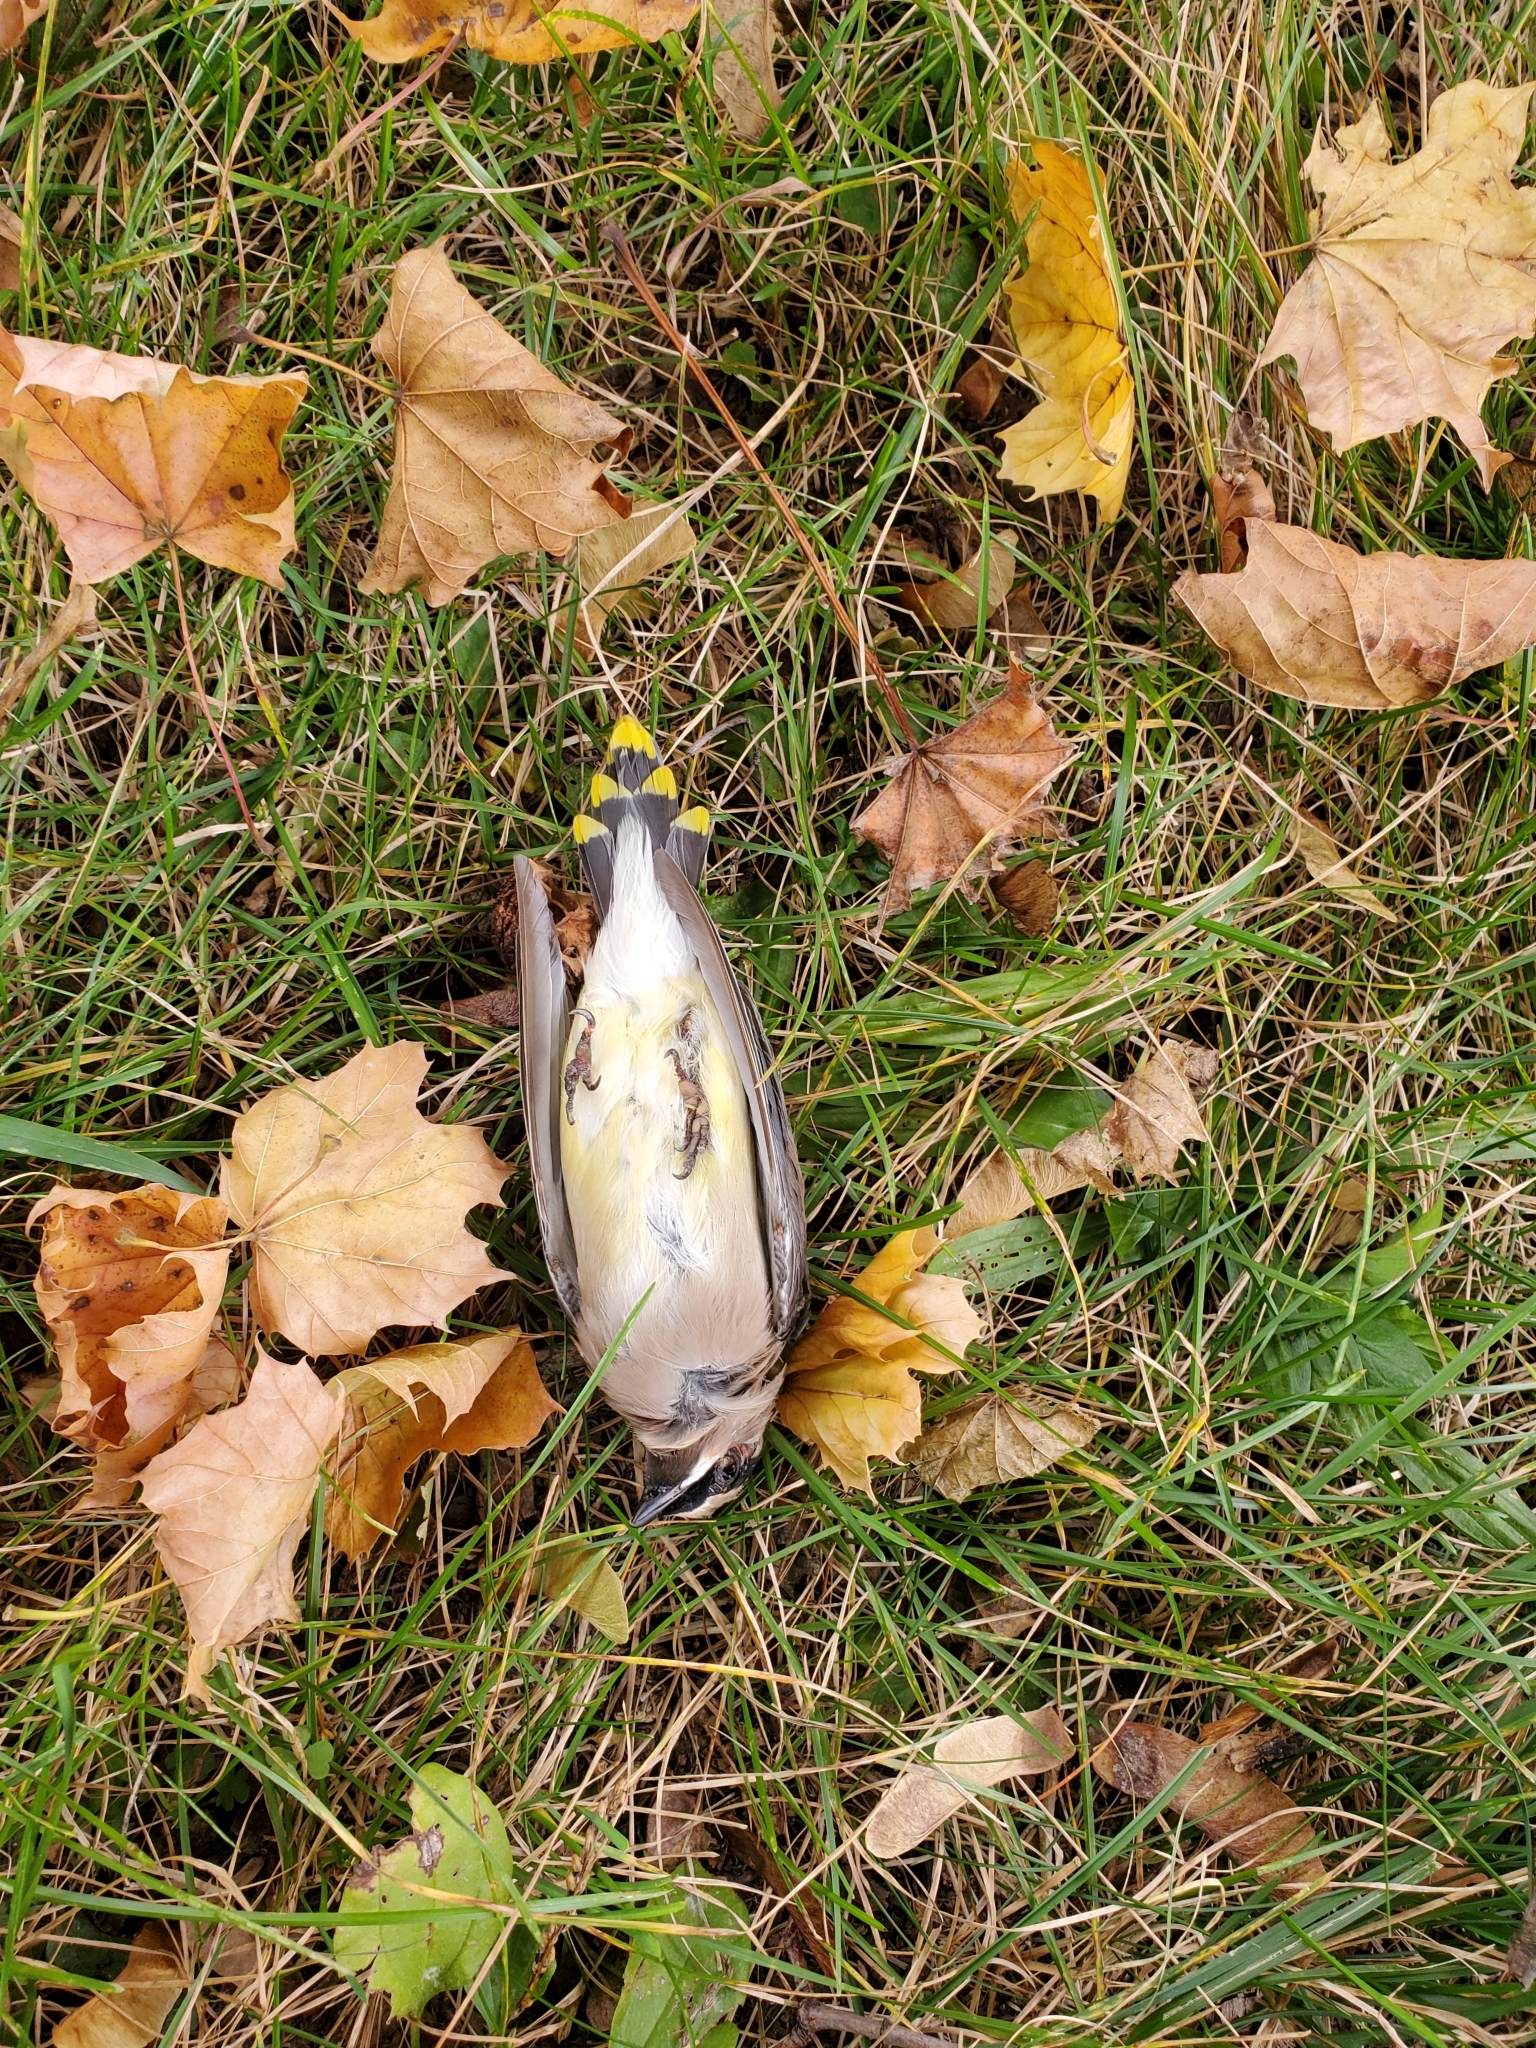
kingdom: Animalia
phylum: Chordata
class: Aves
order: Passeriformes
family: Bombycillidae
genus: Bombycilla
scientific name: Bombycilla cedrorum
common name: Cedar waxwing
